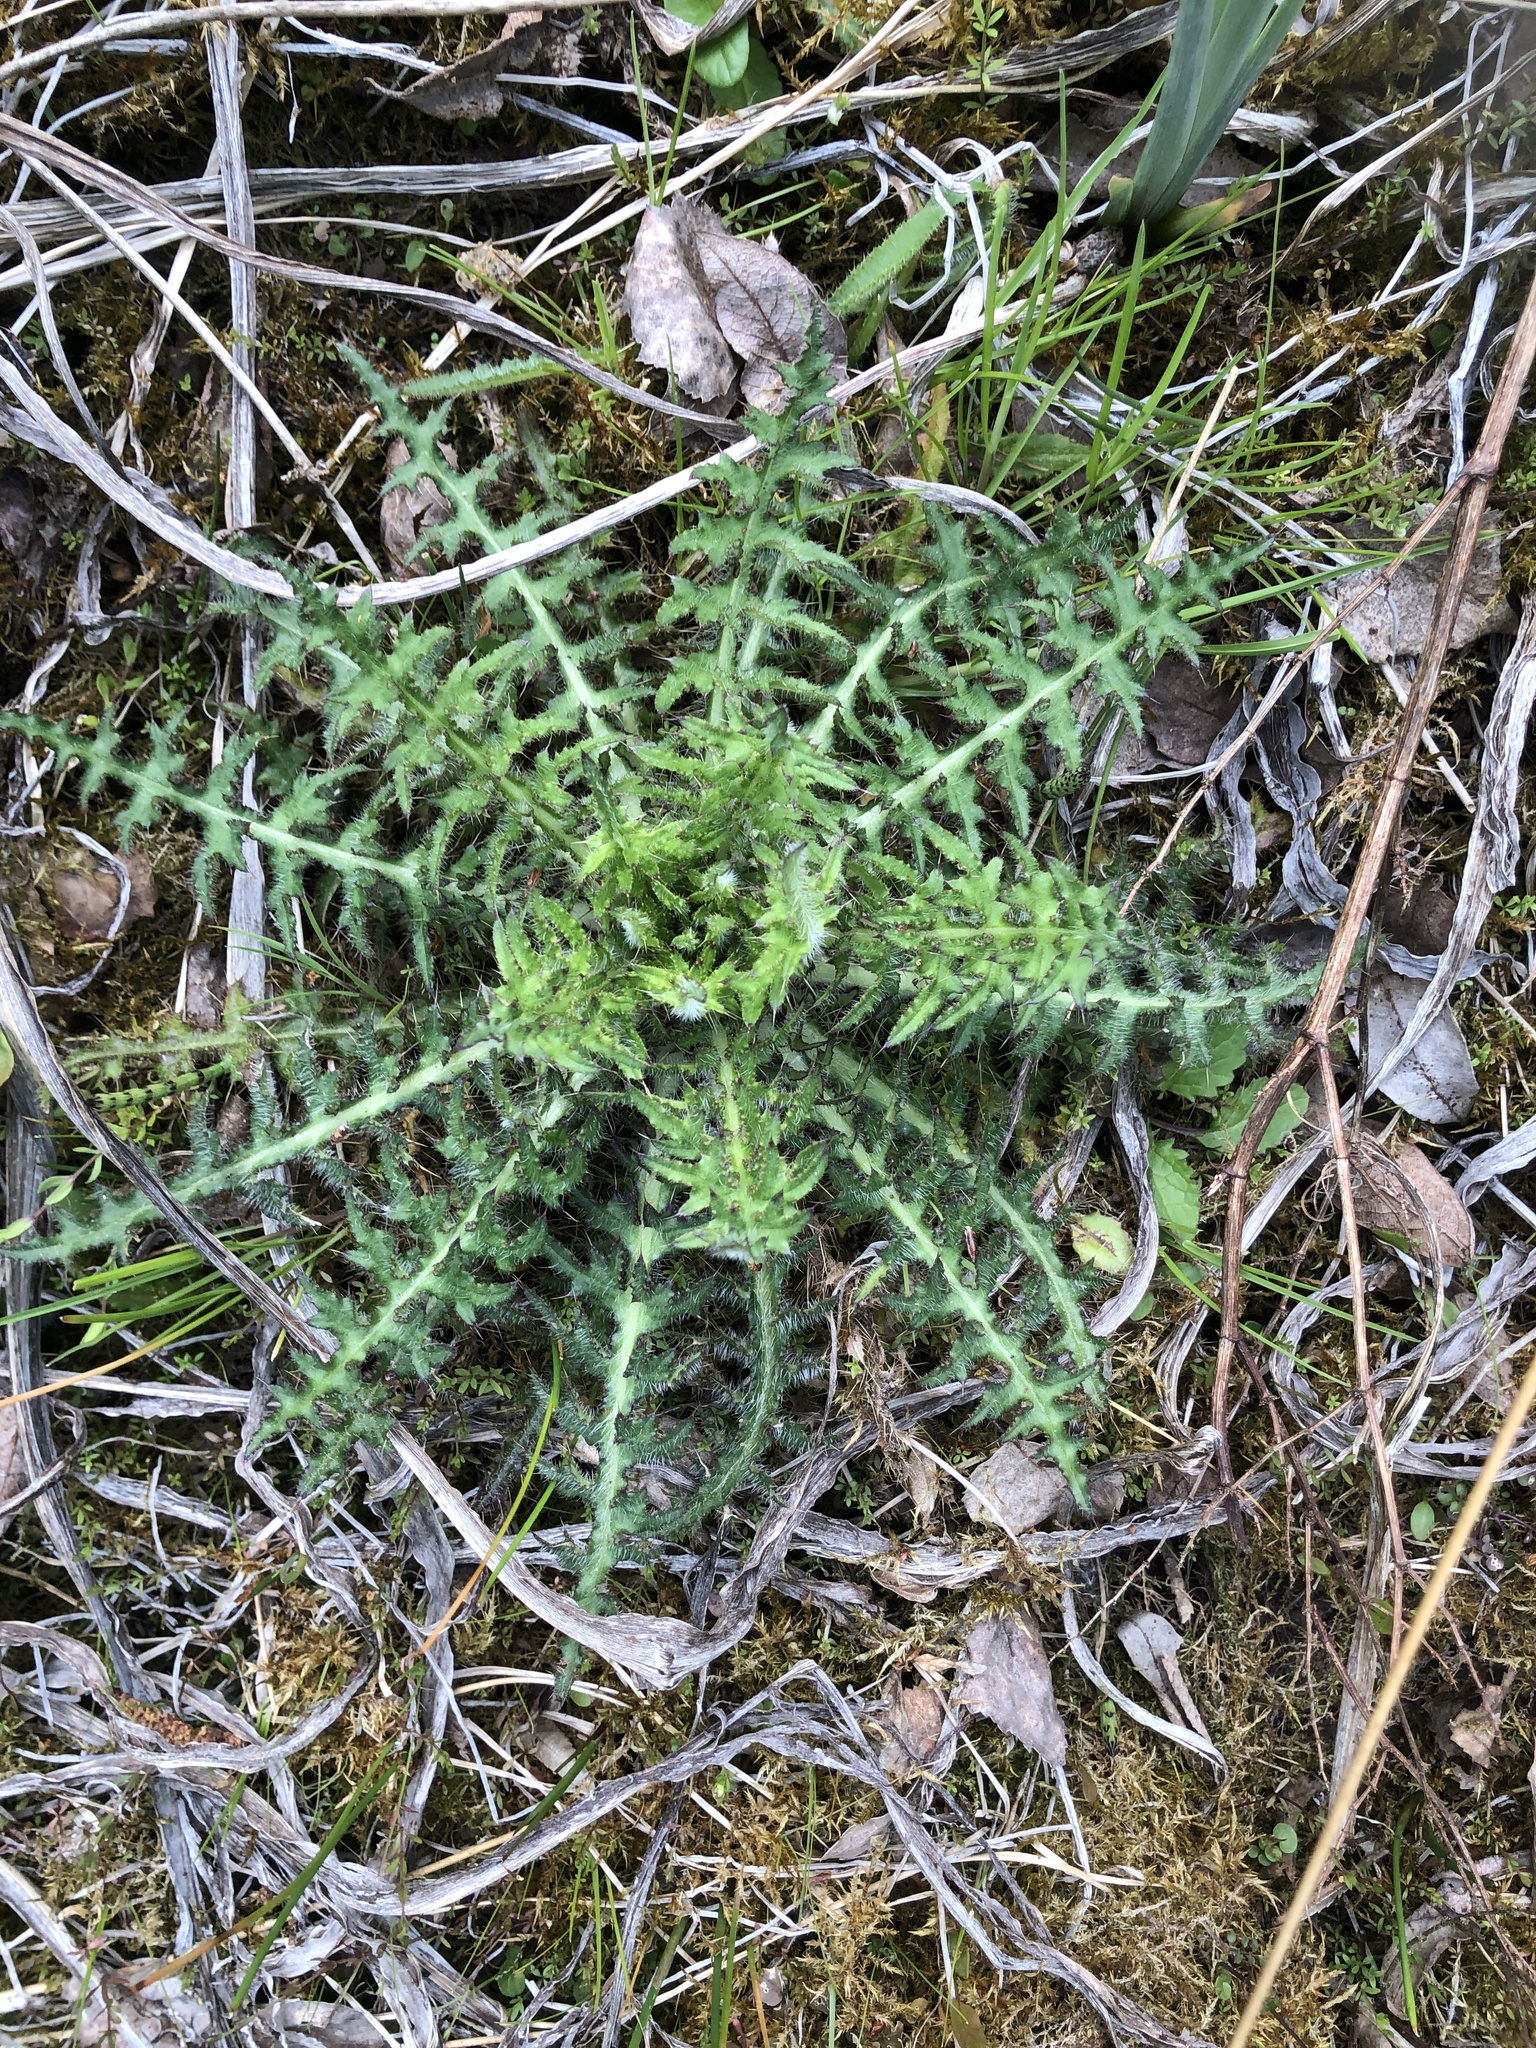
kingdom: Plantae
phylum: Tracheophyta
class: Magnoliopsida
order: Asterales
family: Asteraceae
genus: Cirsium
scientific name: Cirsium palustre
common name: Marsh thistle
